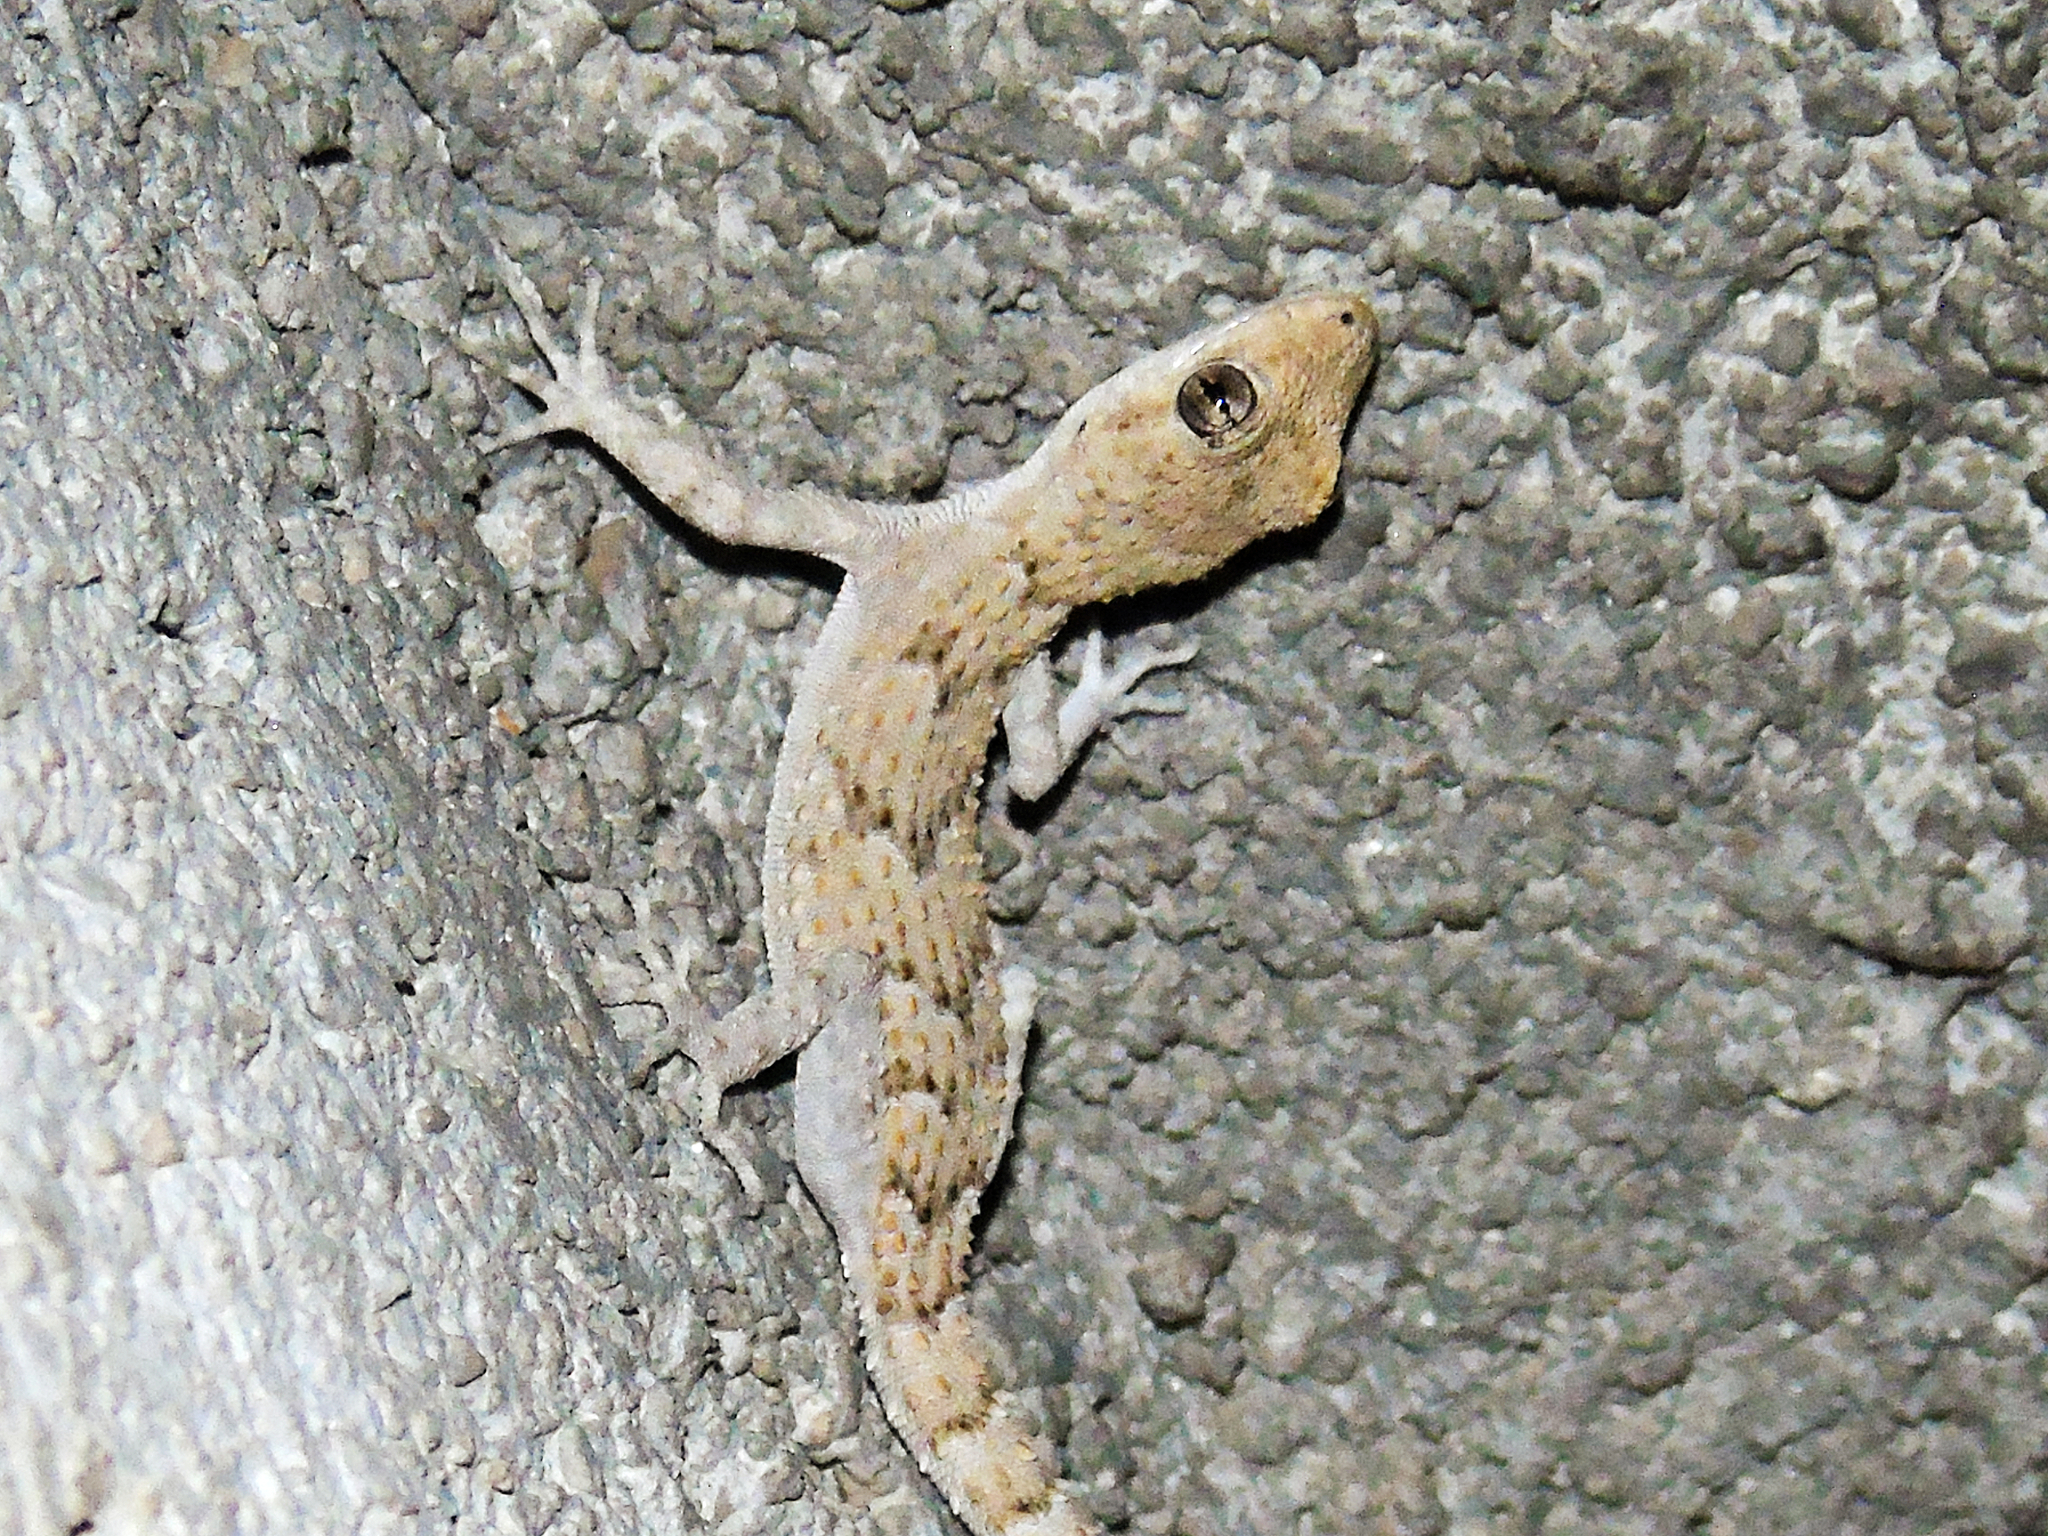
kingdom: Animalia
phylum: Chordata
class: Squamata
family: Gekkonidae
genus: Mediodactylus
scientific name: Mediodactylus kotschyi
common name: Kotschy's gecko
